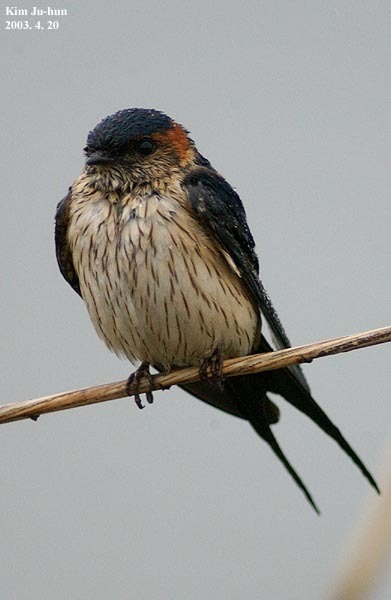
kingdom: Animalia
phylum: Chordata
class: Aves
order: Passeriformes
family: Hirundinidae
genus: Cecropis
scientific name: Cecropis daurica
